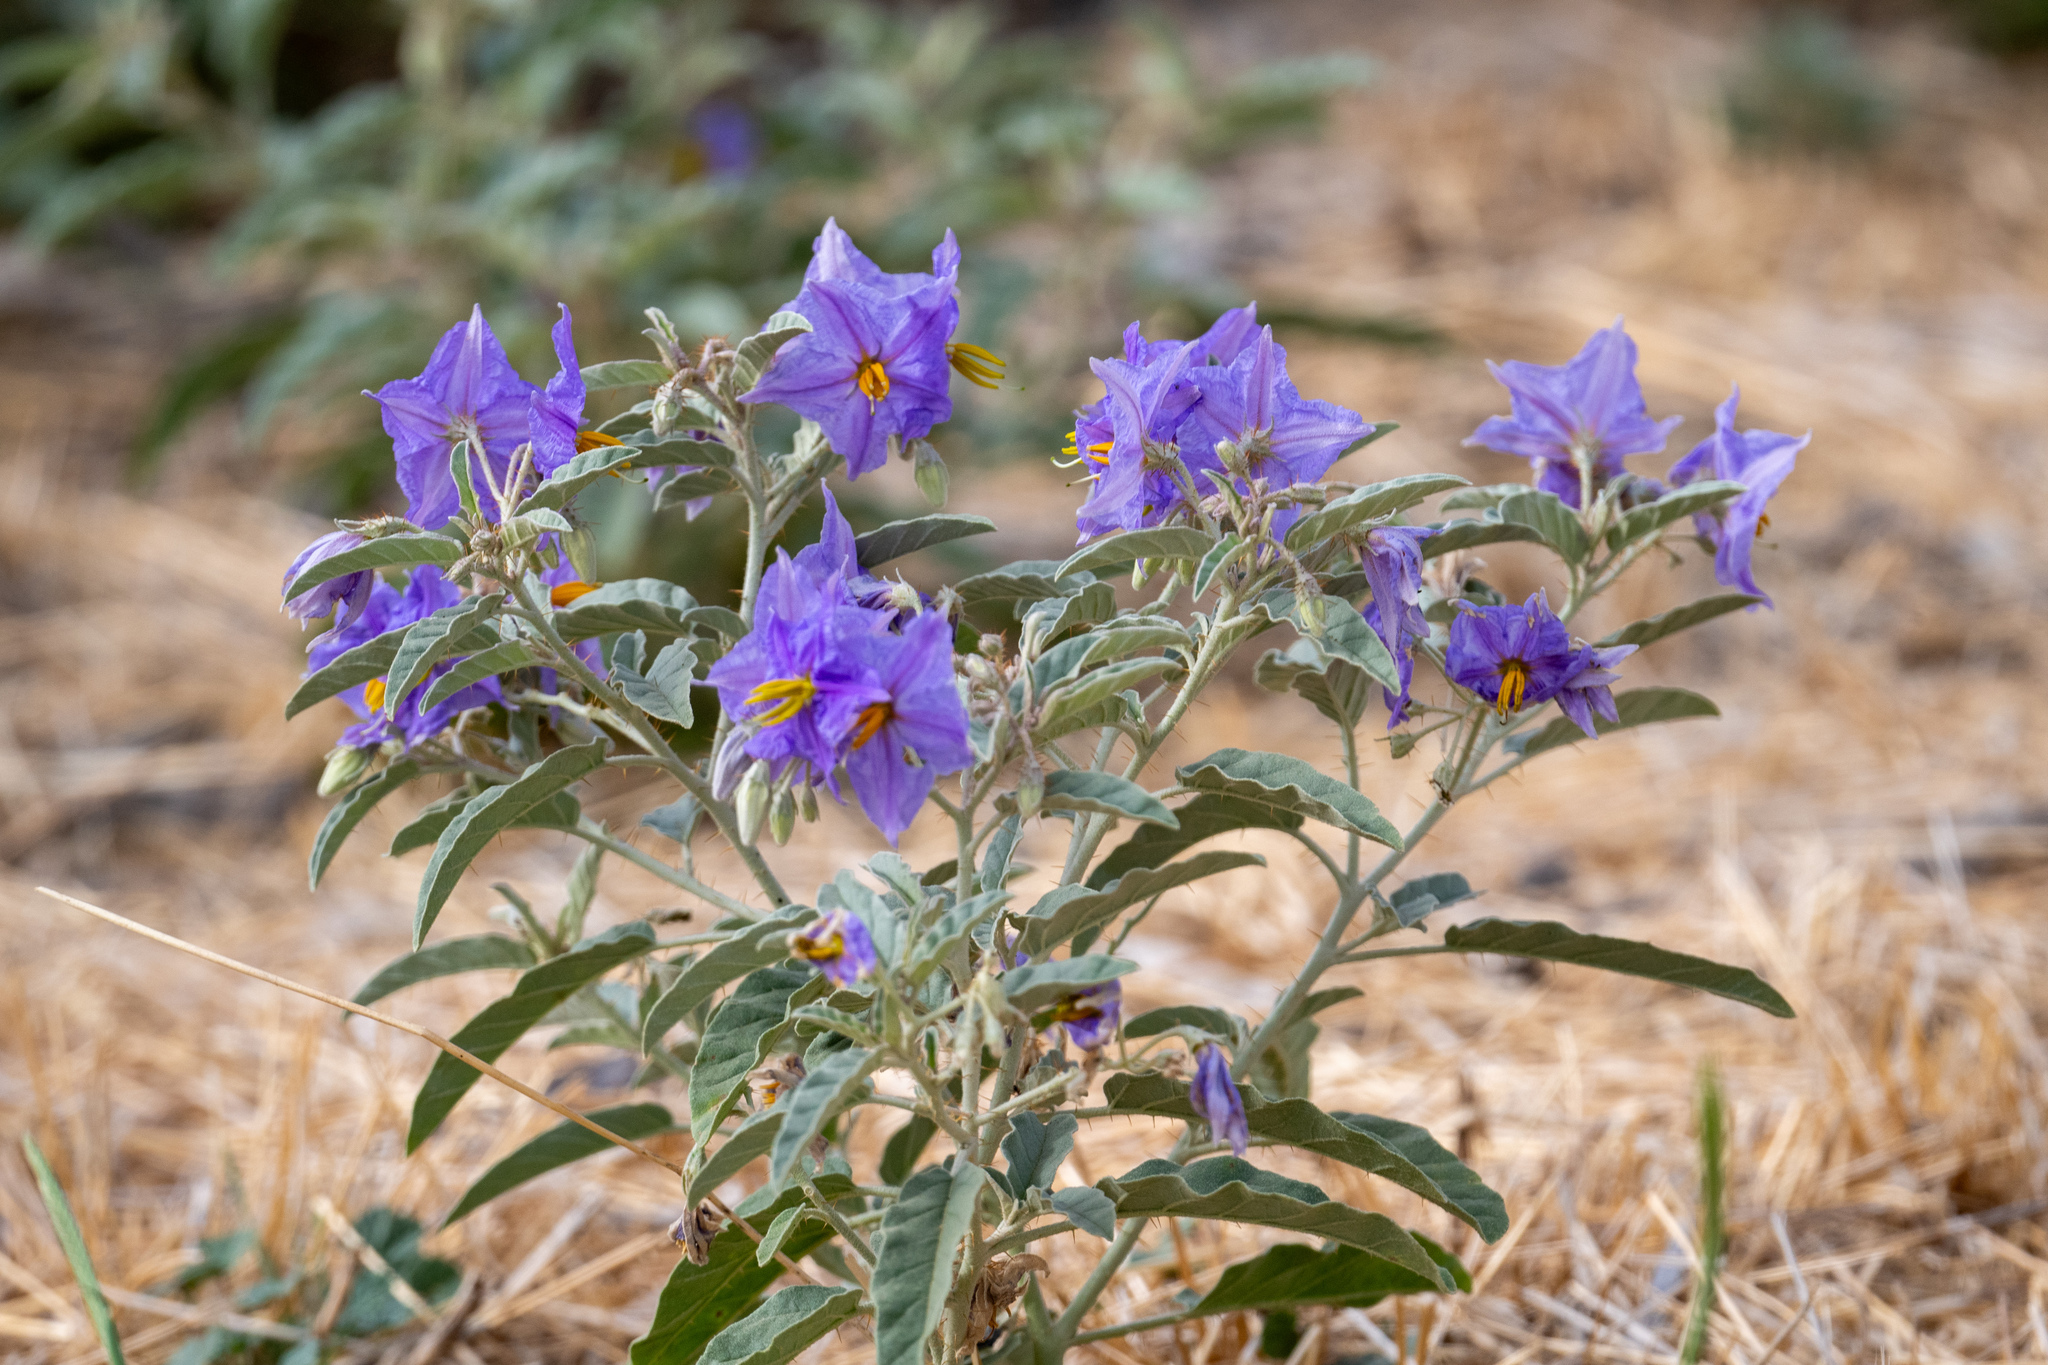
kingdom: Plantae
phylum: Tracheophyta
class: Magnoliopsida
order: Solanales
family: Solanaceae
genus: Solanum
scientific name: Solanum elaeagnifolium
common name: Silverleaf nightshade
